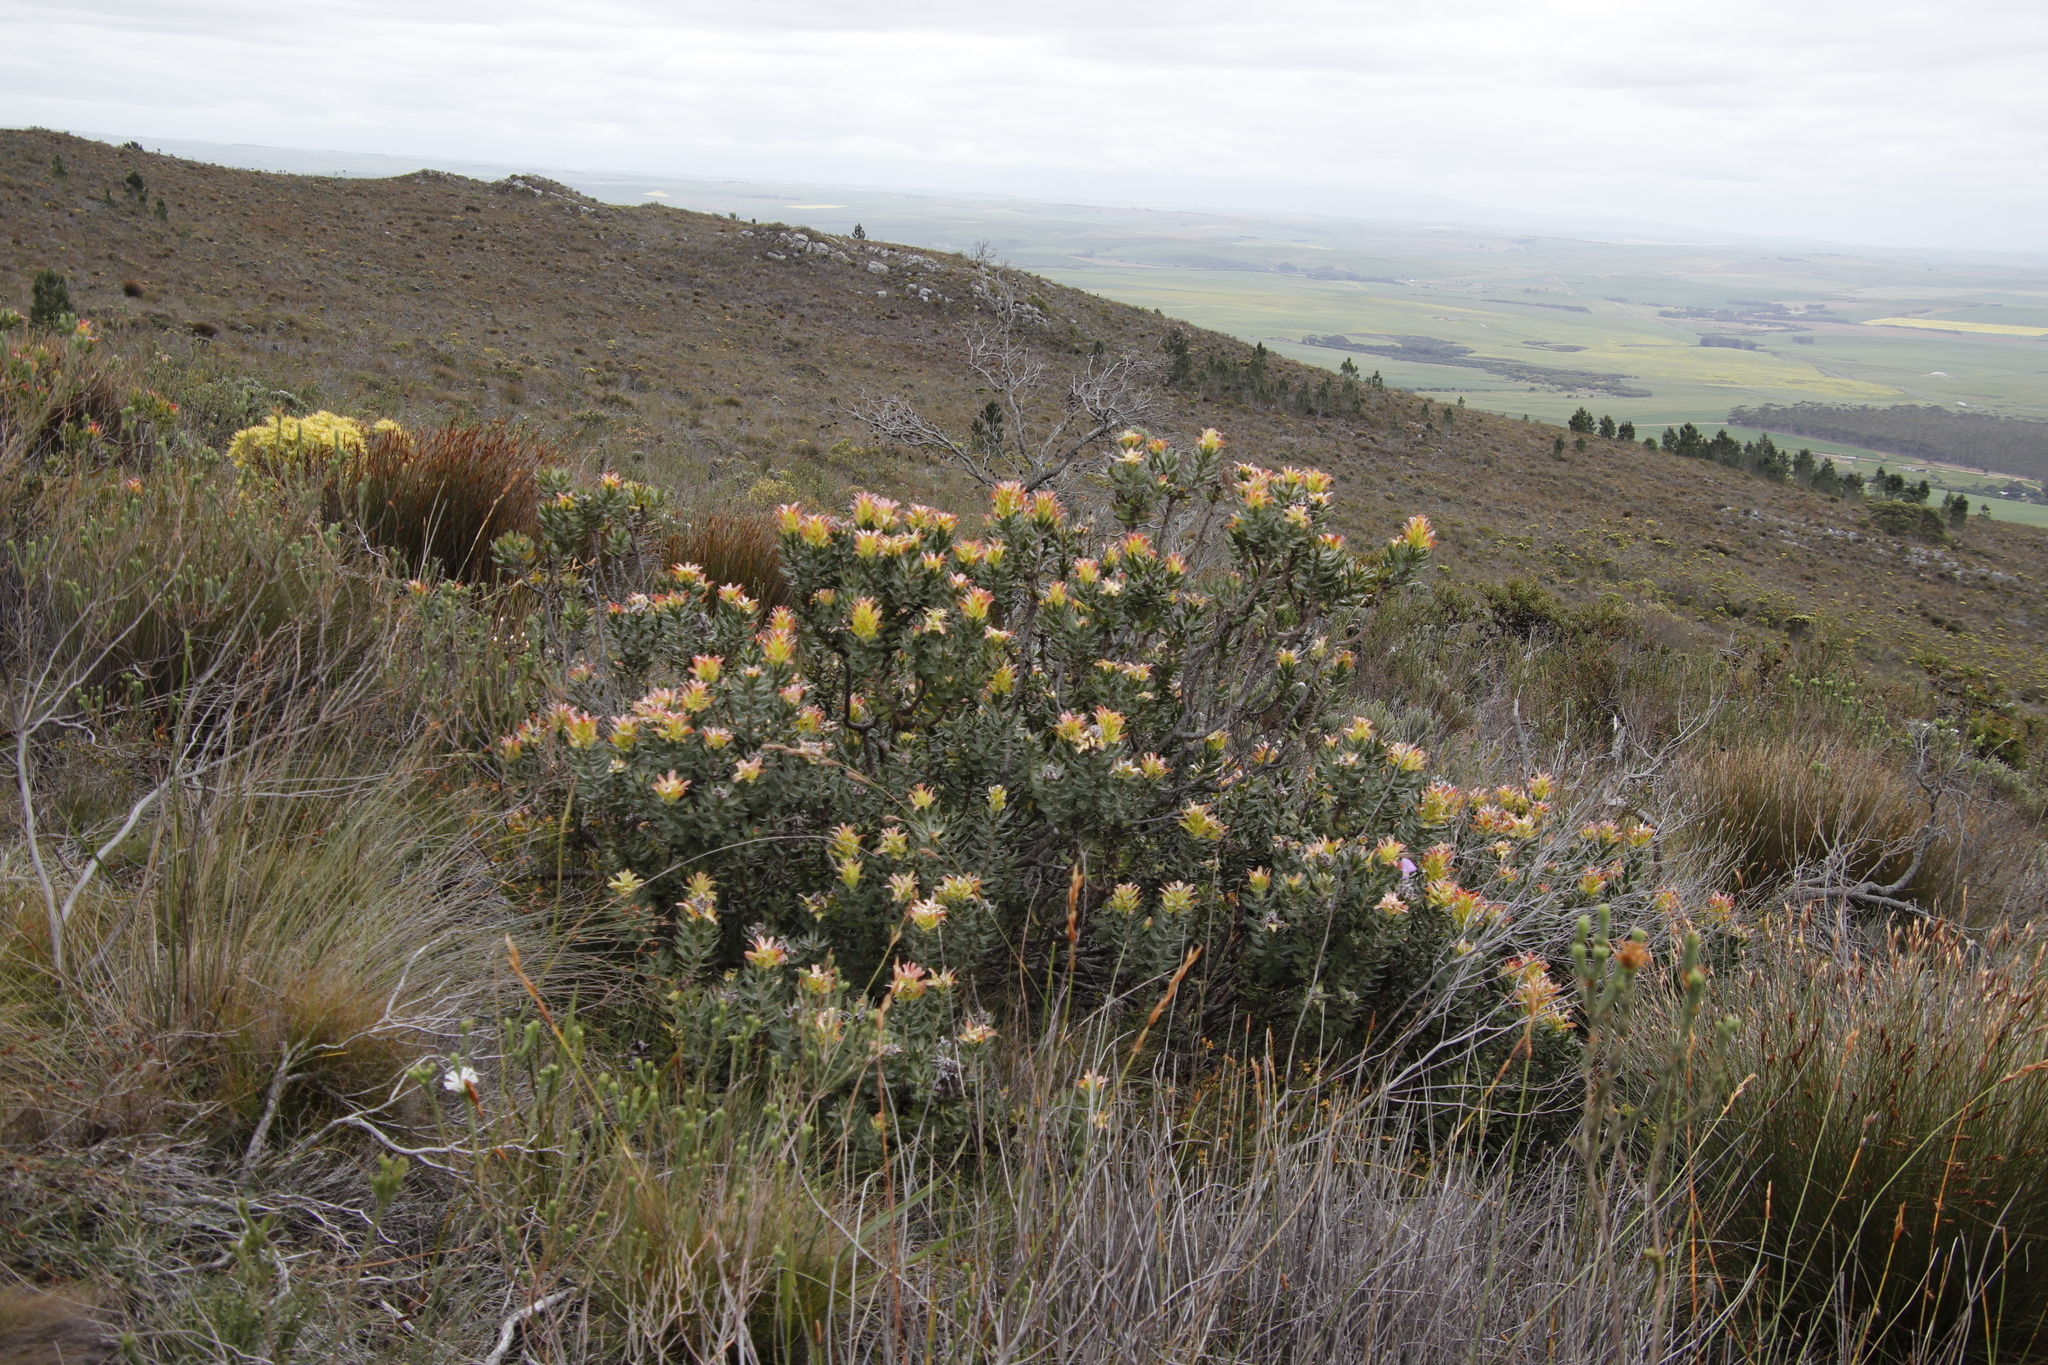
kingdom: Plantae
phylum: Tracheophyta
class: Magnoliopsida
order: Proteales
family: Proteaceae
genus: Mimetes
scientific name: Mimetes cucullatus
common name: Common pagoda
